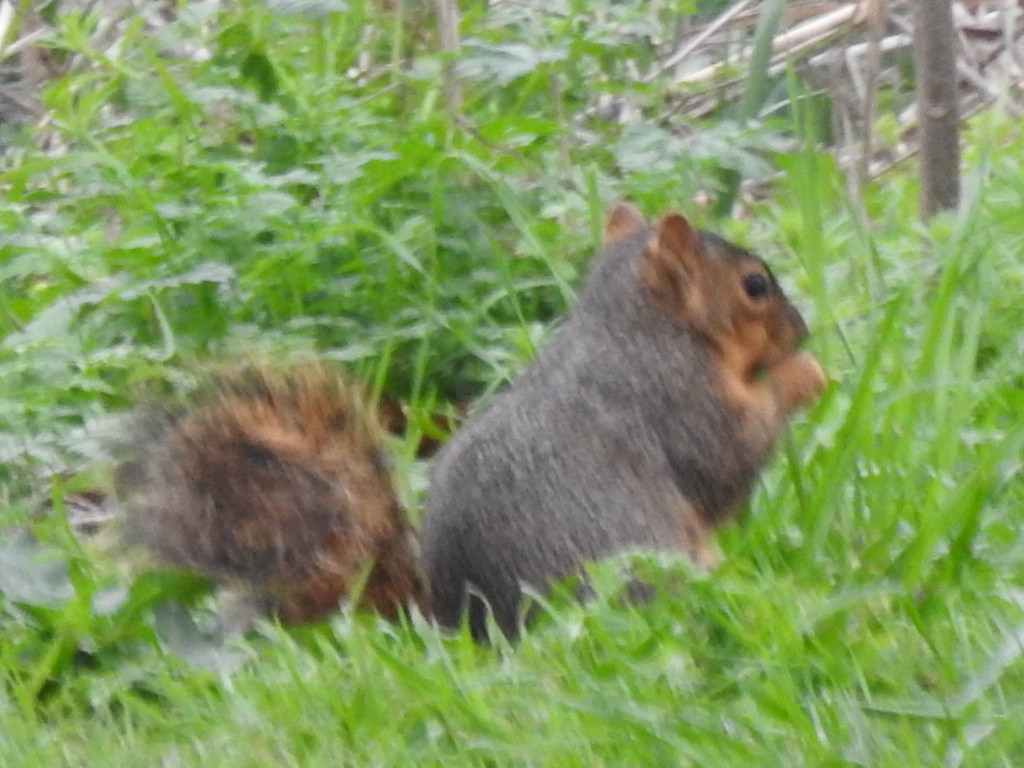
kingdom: Animalia
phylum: Chordata
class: Mammalia
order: Rodentia
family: Sciuridae
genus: Sciurus
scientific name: Sciurus niger
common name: Fox squirrel
